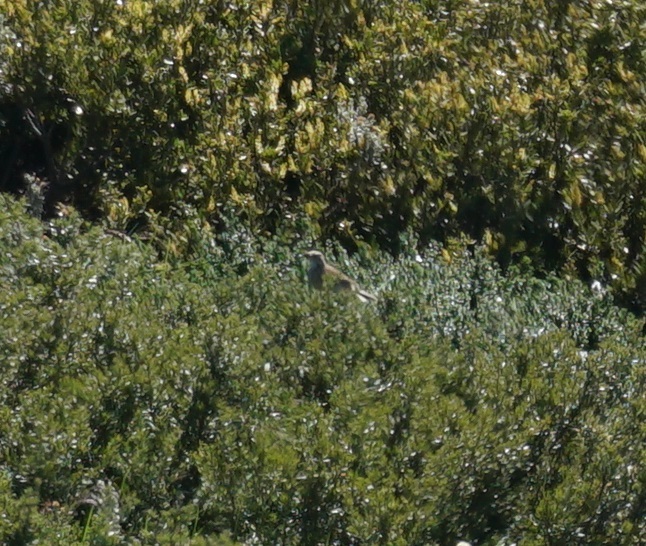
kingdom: Animalia
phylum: Chordata
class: Aves
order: Passeriformes
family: Motacillidae
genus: Anthus
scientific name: Anthus australis
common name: Australian pipit
